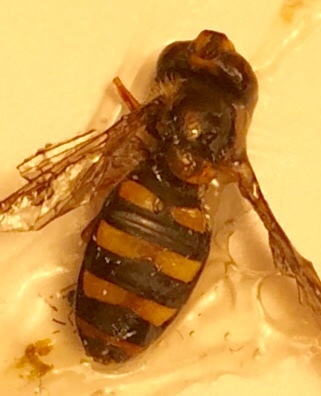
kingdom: Animalia
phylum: Arthropoda
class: Insecta
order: Diptera
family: Syrphidae
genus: Eupeodes
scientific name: Eupeodes
